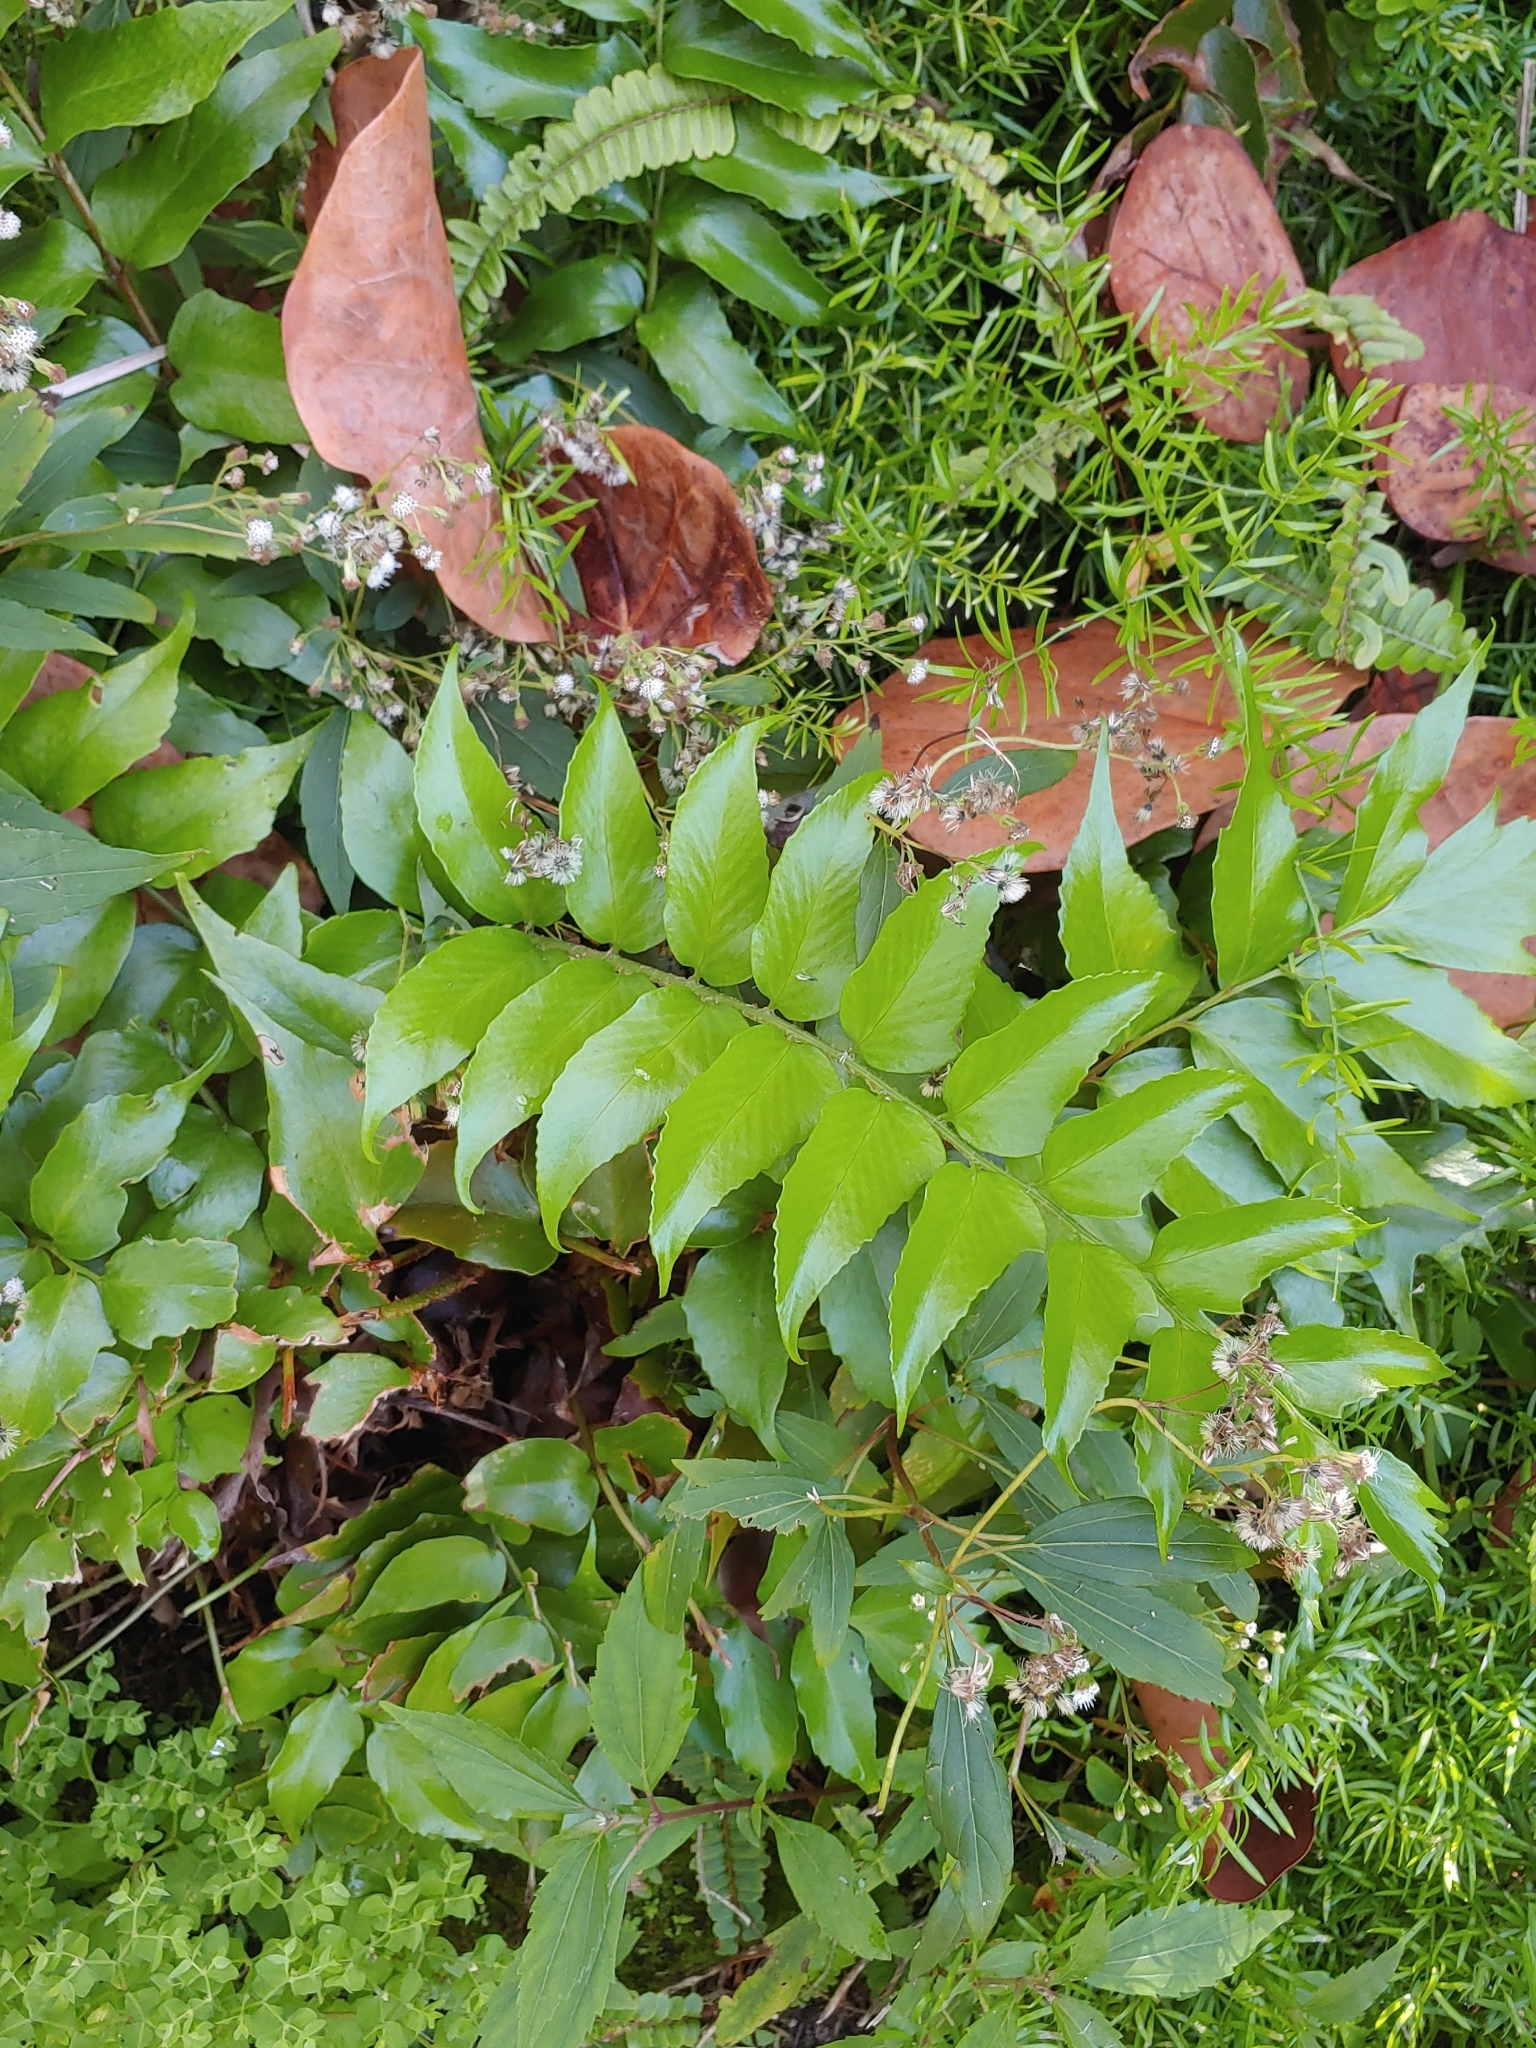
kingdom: Plantae
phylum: Tracheophyta
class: Polypodiopsida
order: Polypodiales
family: Dryopteridaceae
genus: Cyrtomium
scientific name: Cyrtomium falcatum
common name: House holly-fern
